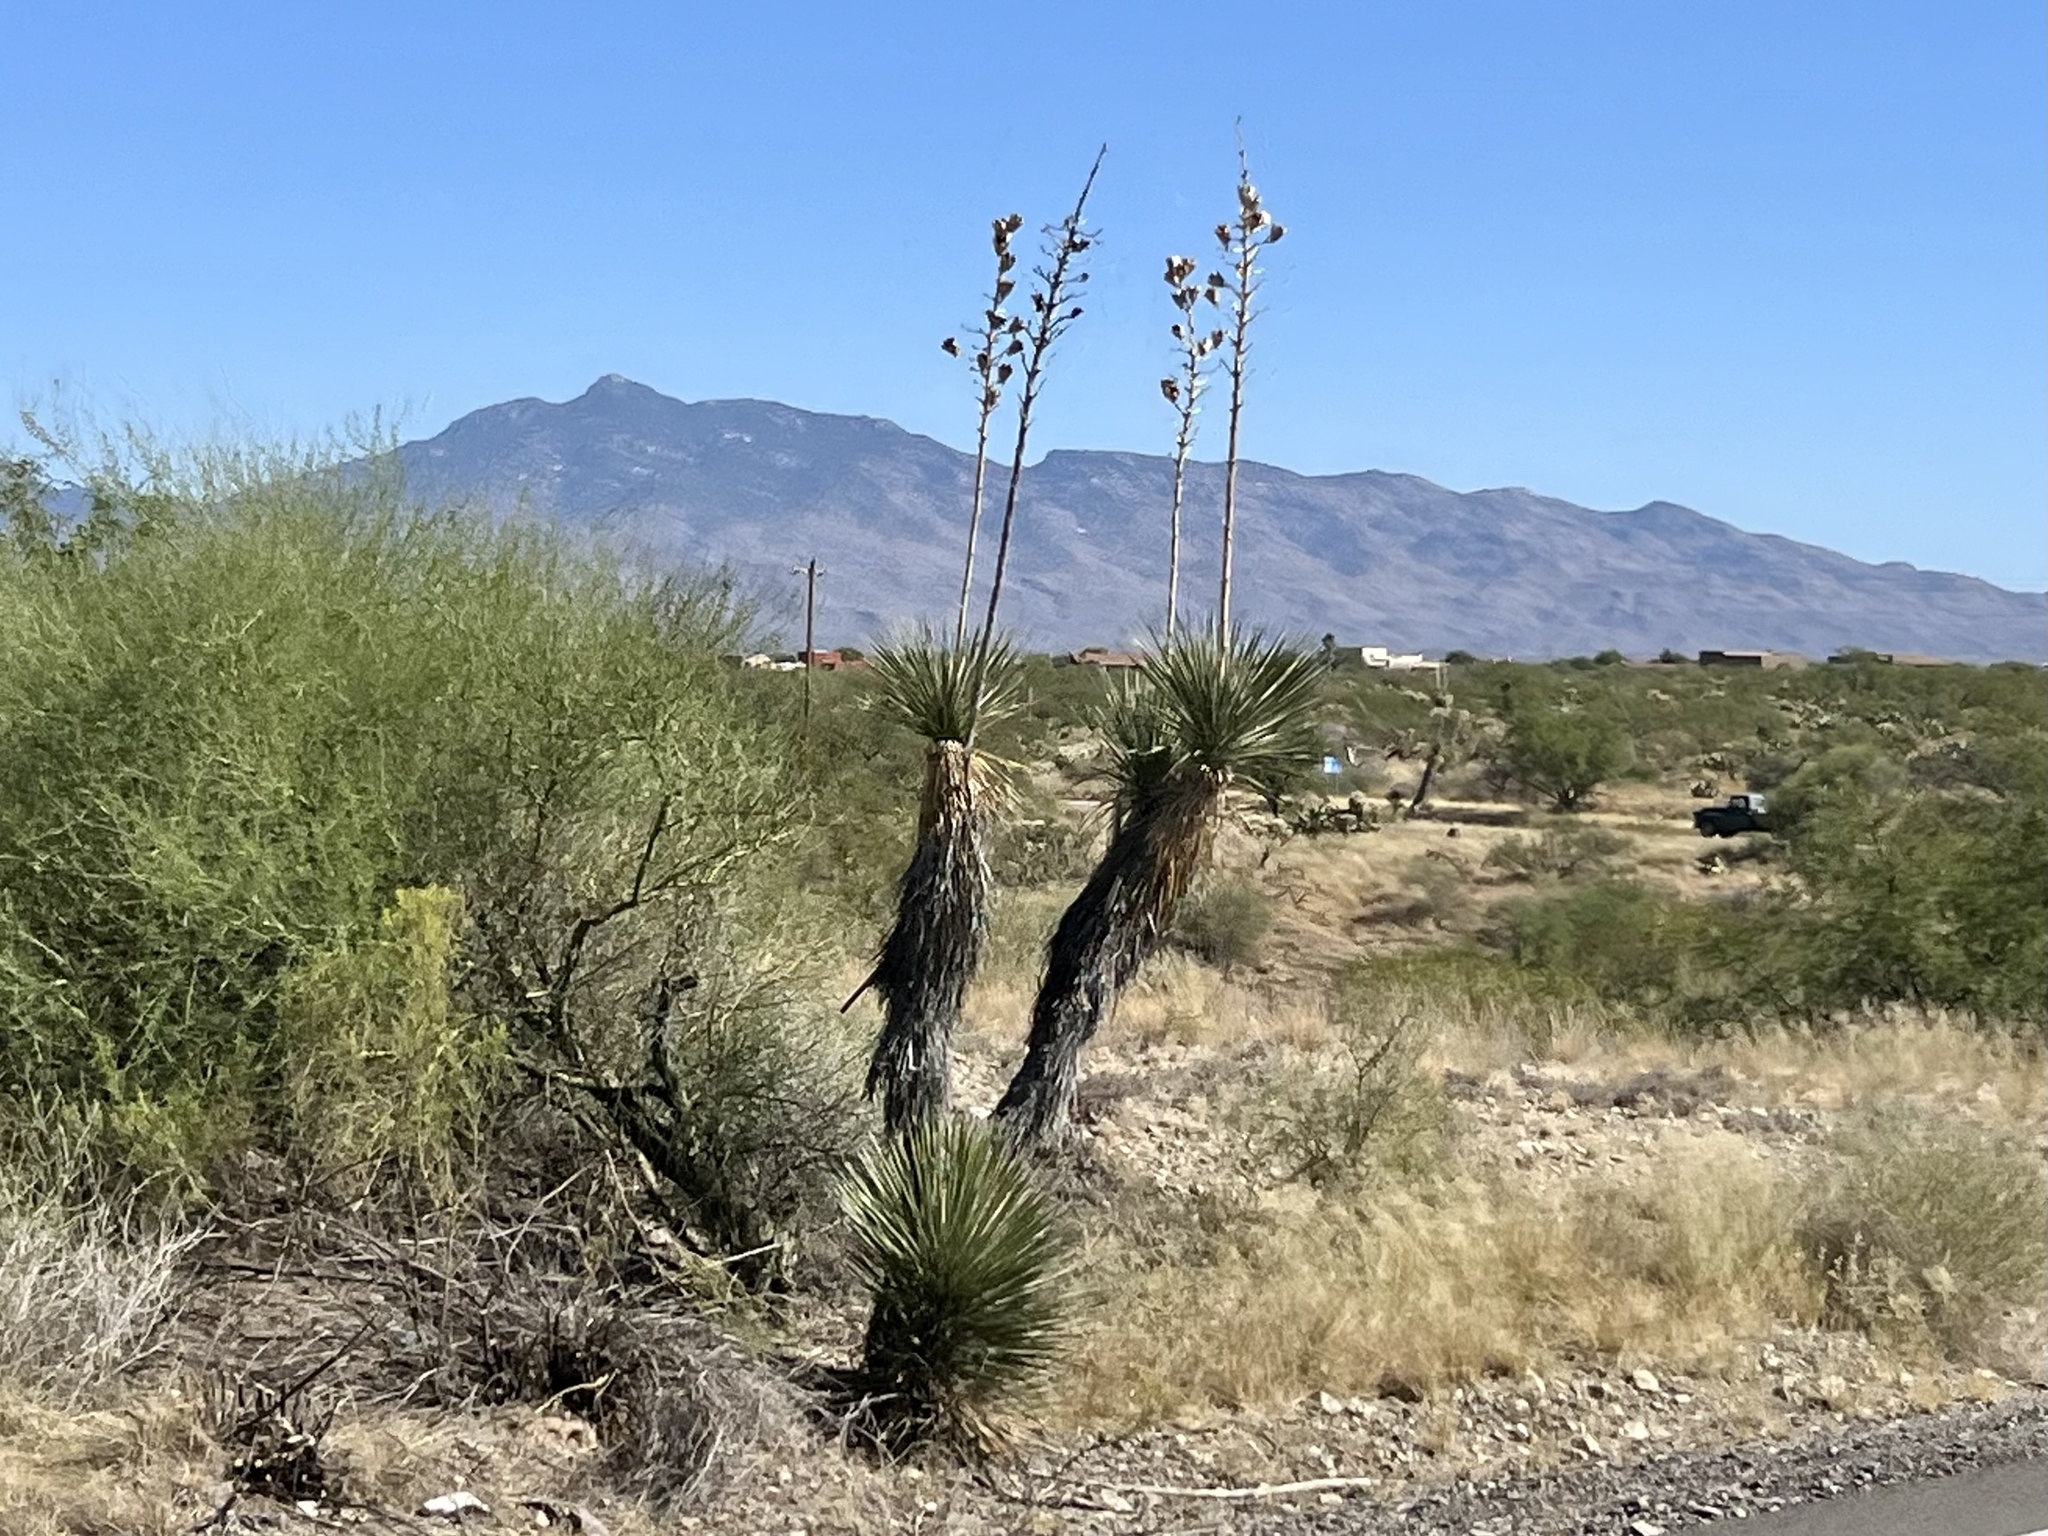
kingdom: Plantae
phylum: Tracheophyta
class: Liliopsida
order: Asparagales
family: Asparagaceae
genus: Yucca
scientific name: Yucca elata
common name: Palmella
